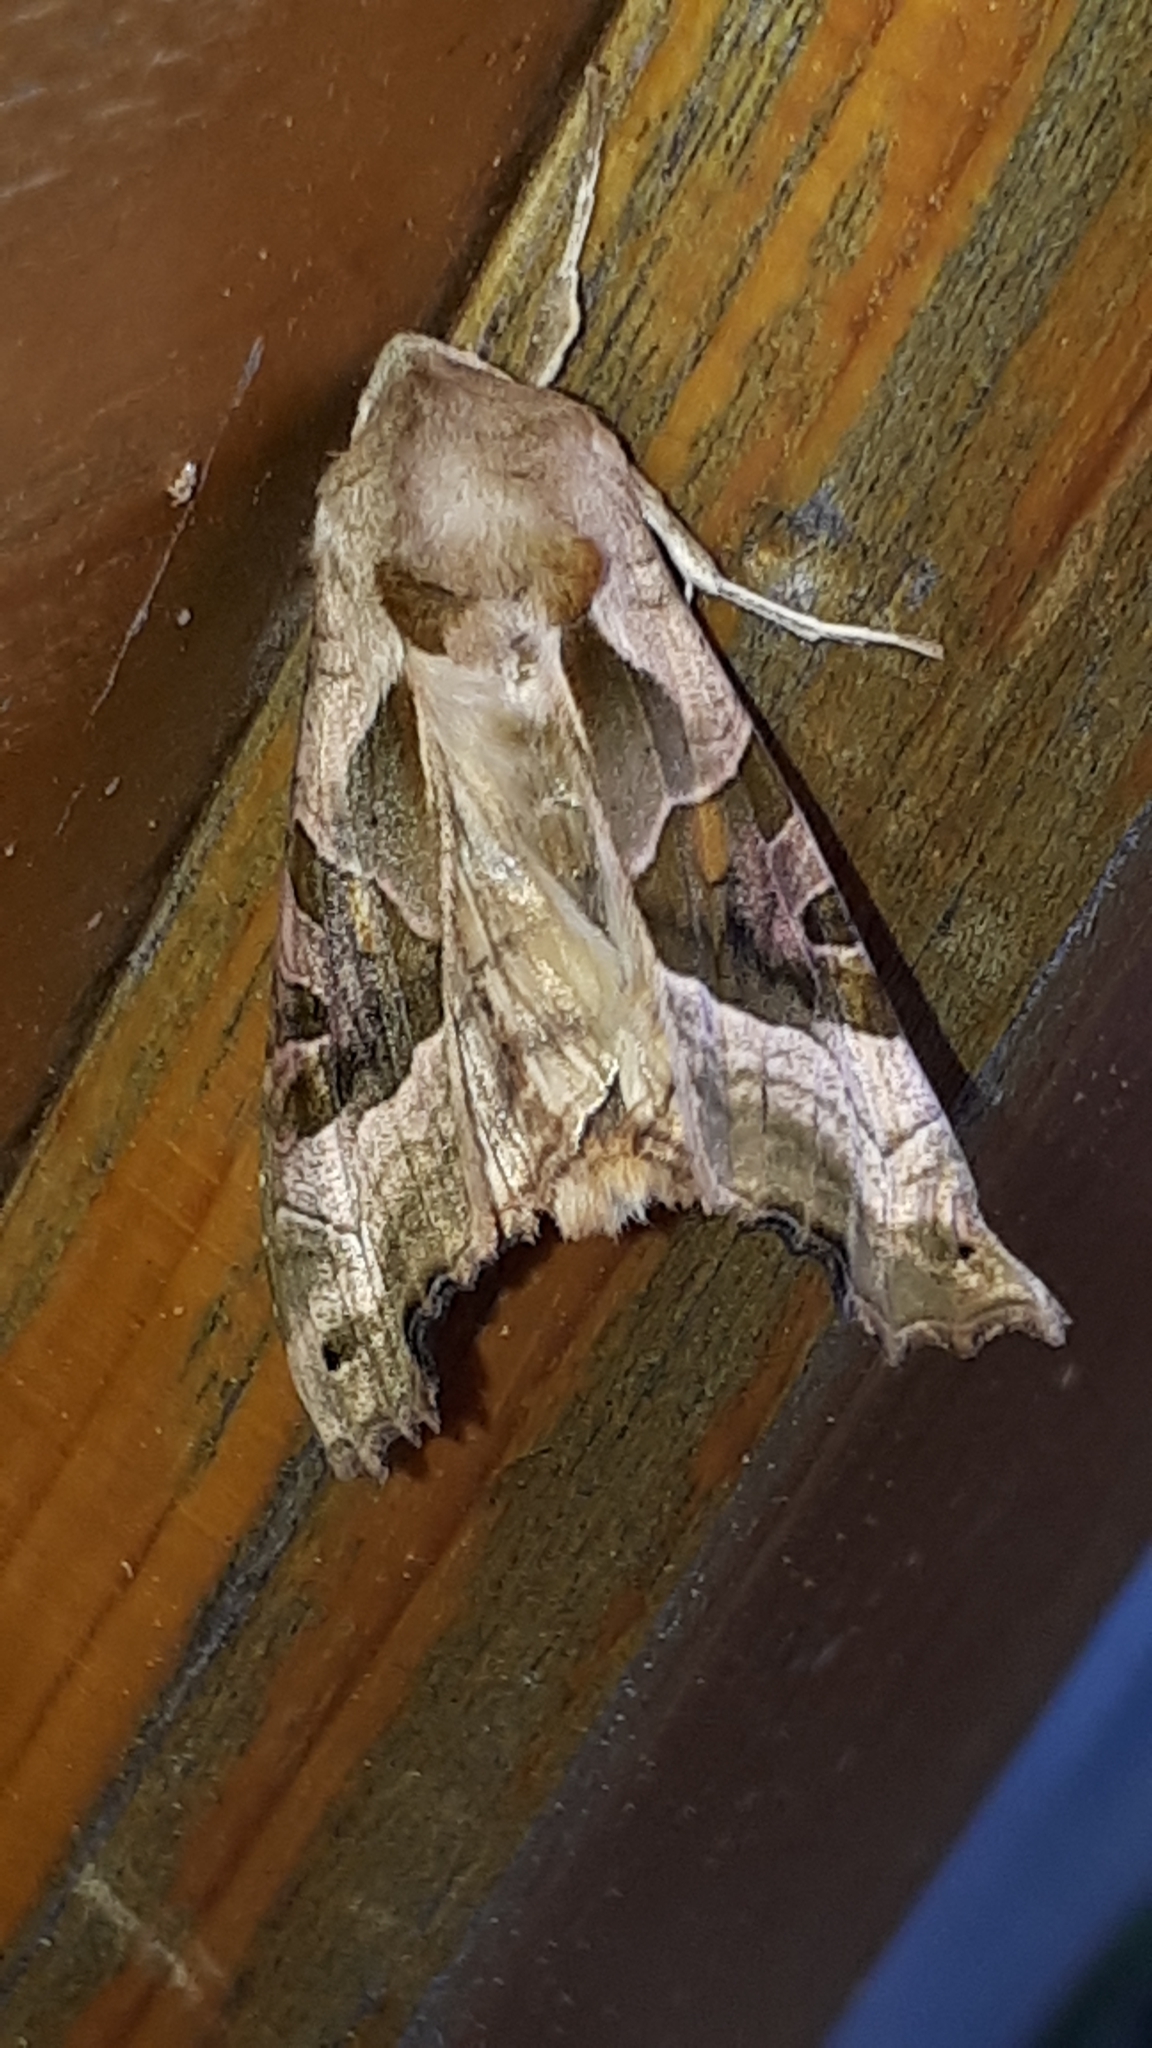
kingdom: Animalia
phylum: Arthropoda
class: Insecta
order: Lepidoptera
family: Noctuidae
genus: Phlogophora
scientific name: Phlogophora meticulosa
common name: Angle shades
